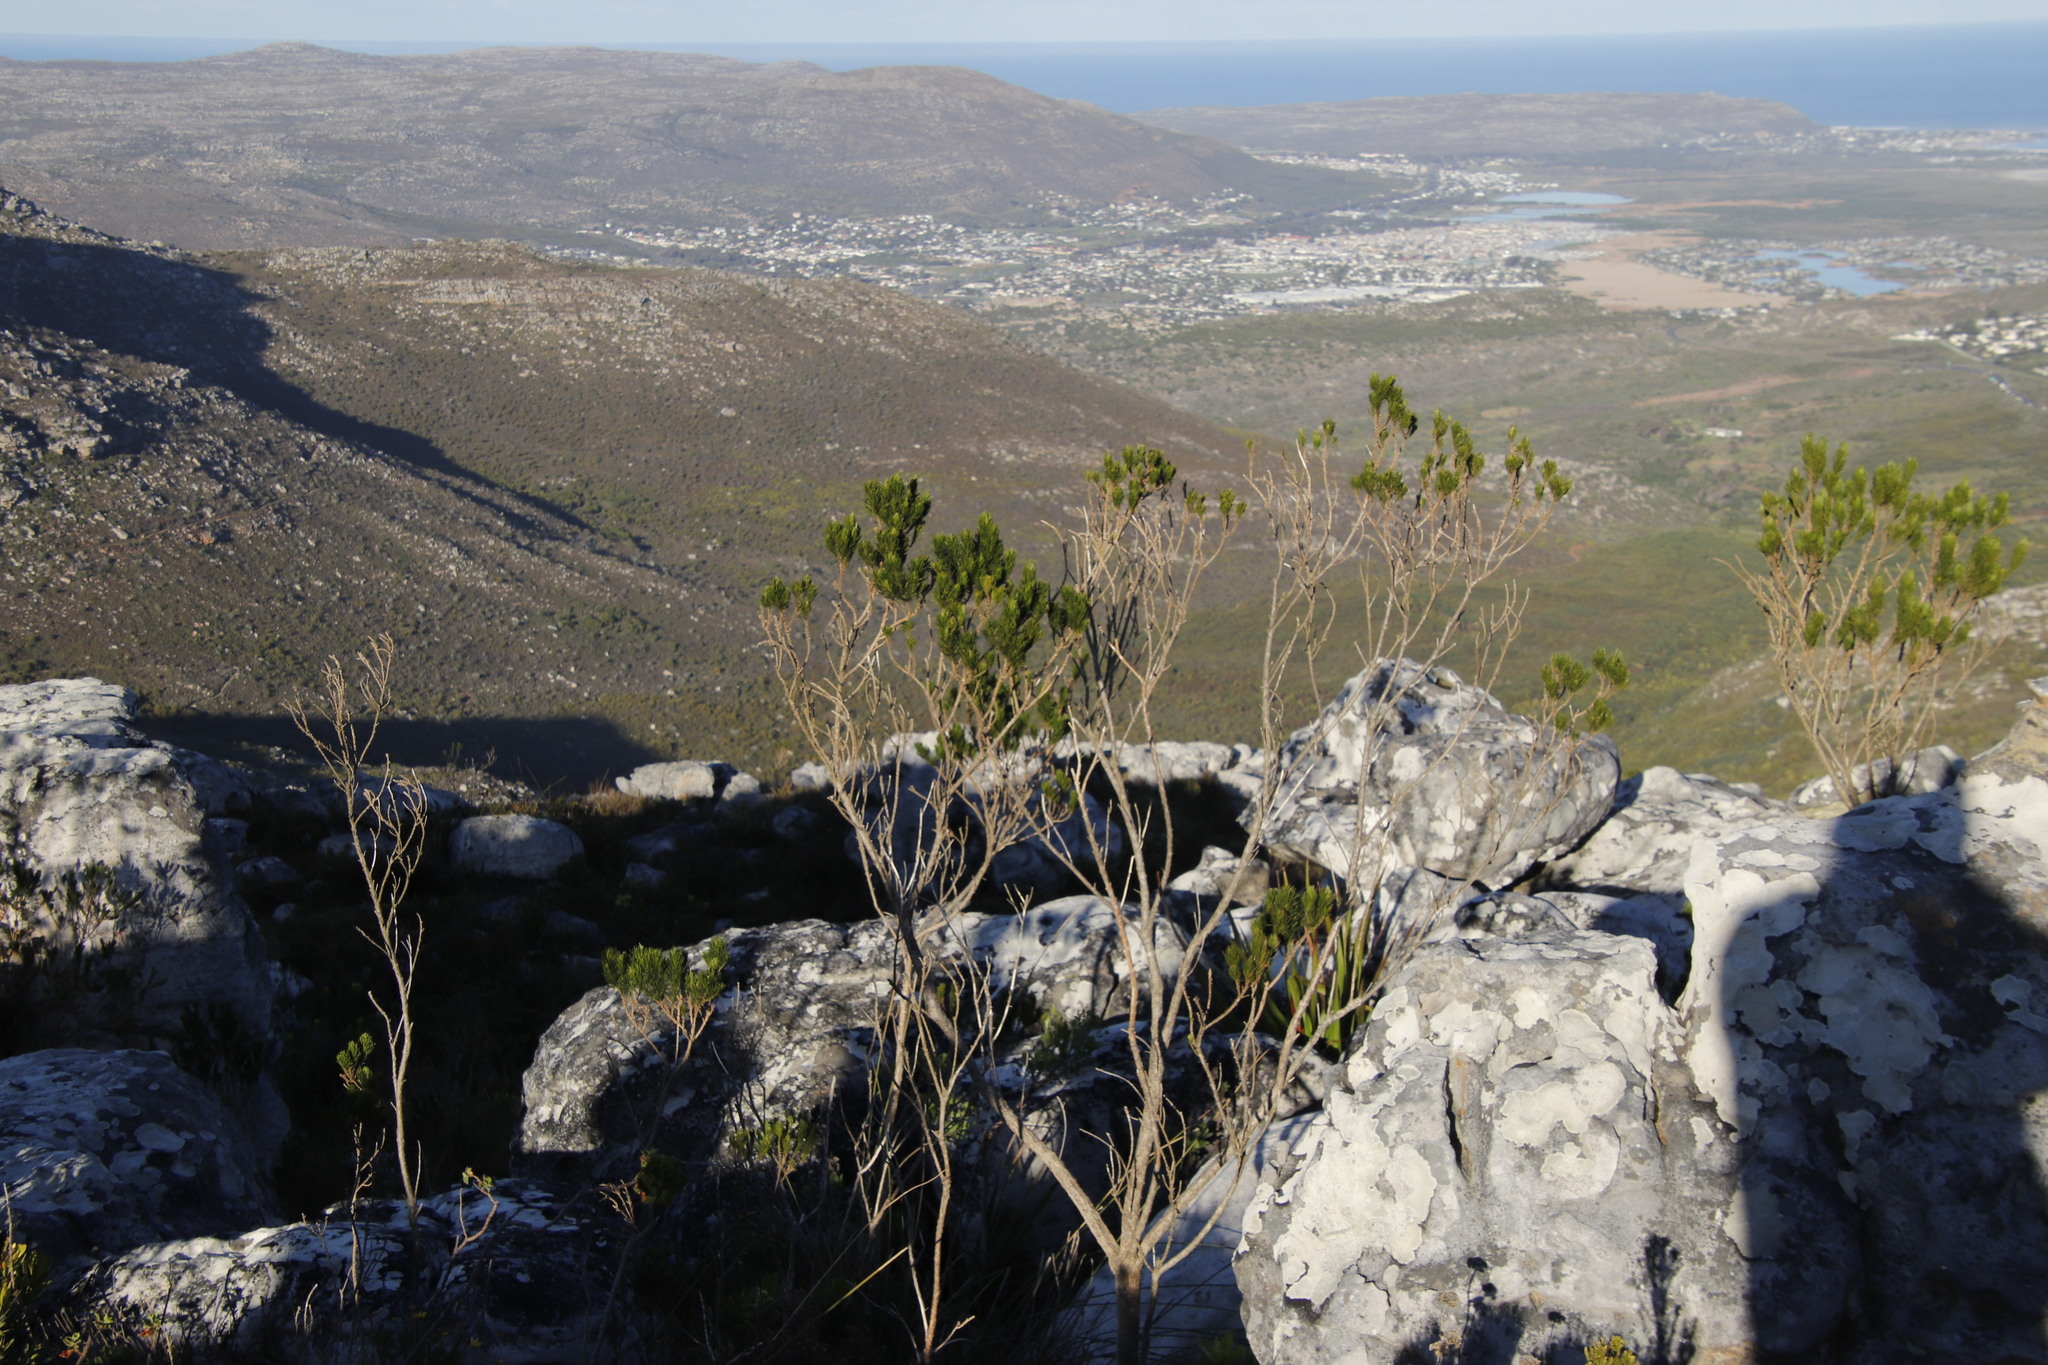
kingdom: Plantae
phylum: Tracheophyta
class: Magnoliopsida
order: Fabales
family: Fabaceae
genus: Psoralea
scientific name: Psoralea pinnata
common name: African scurfpea
